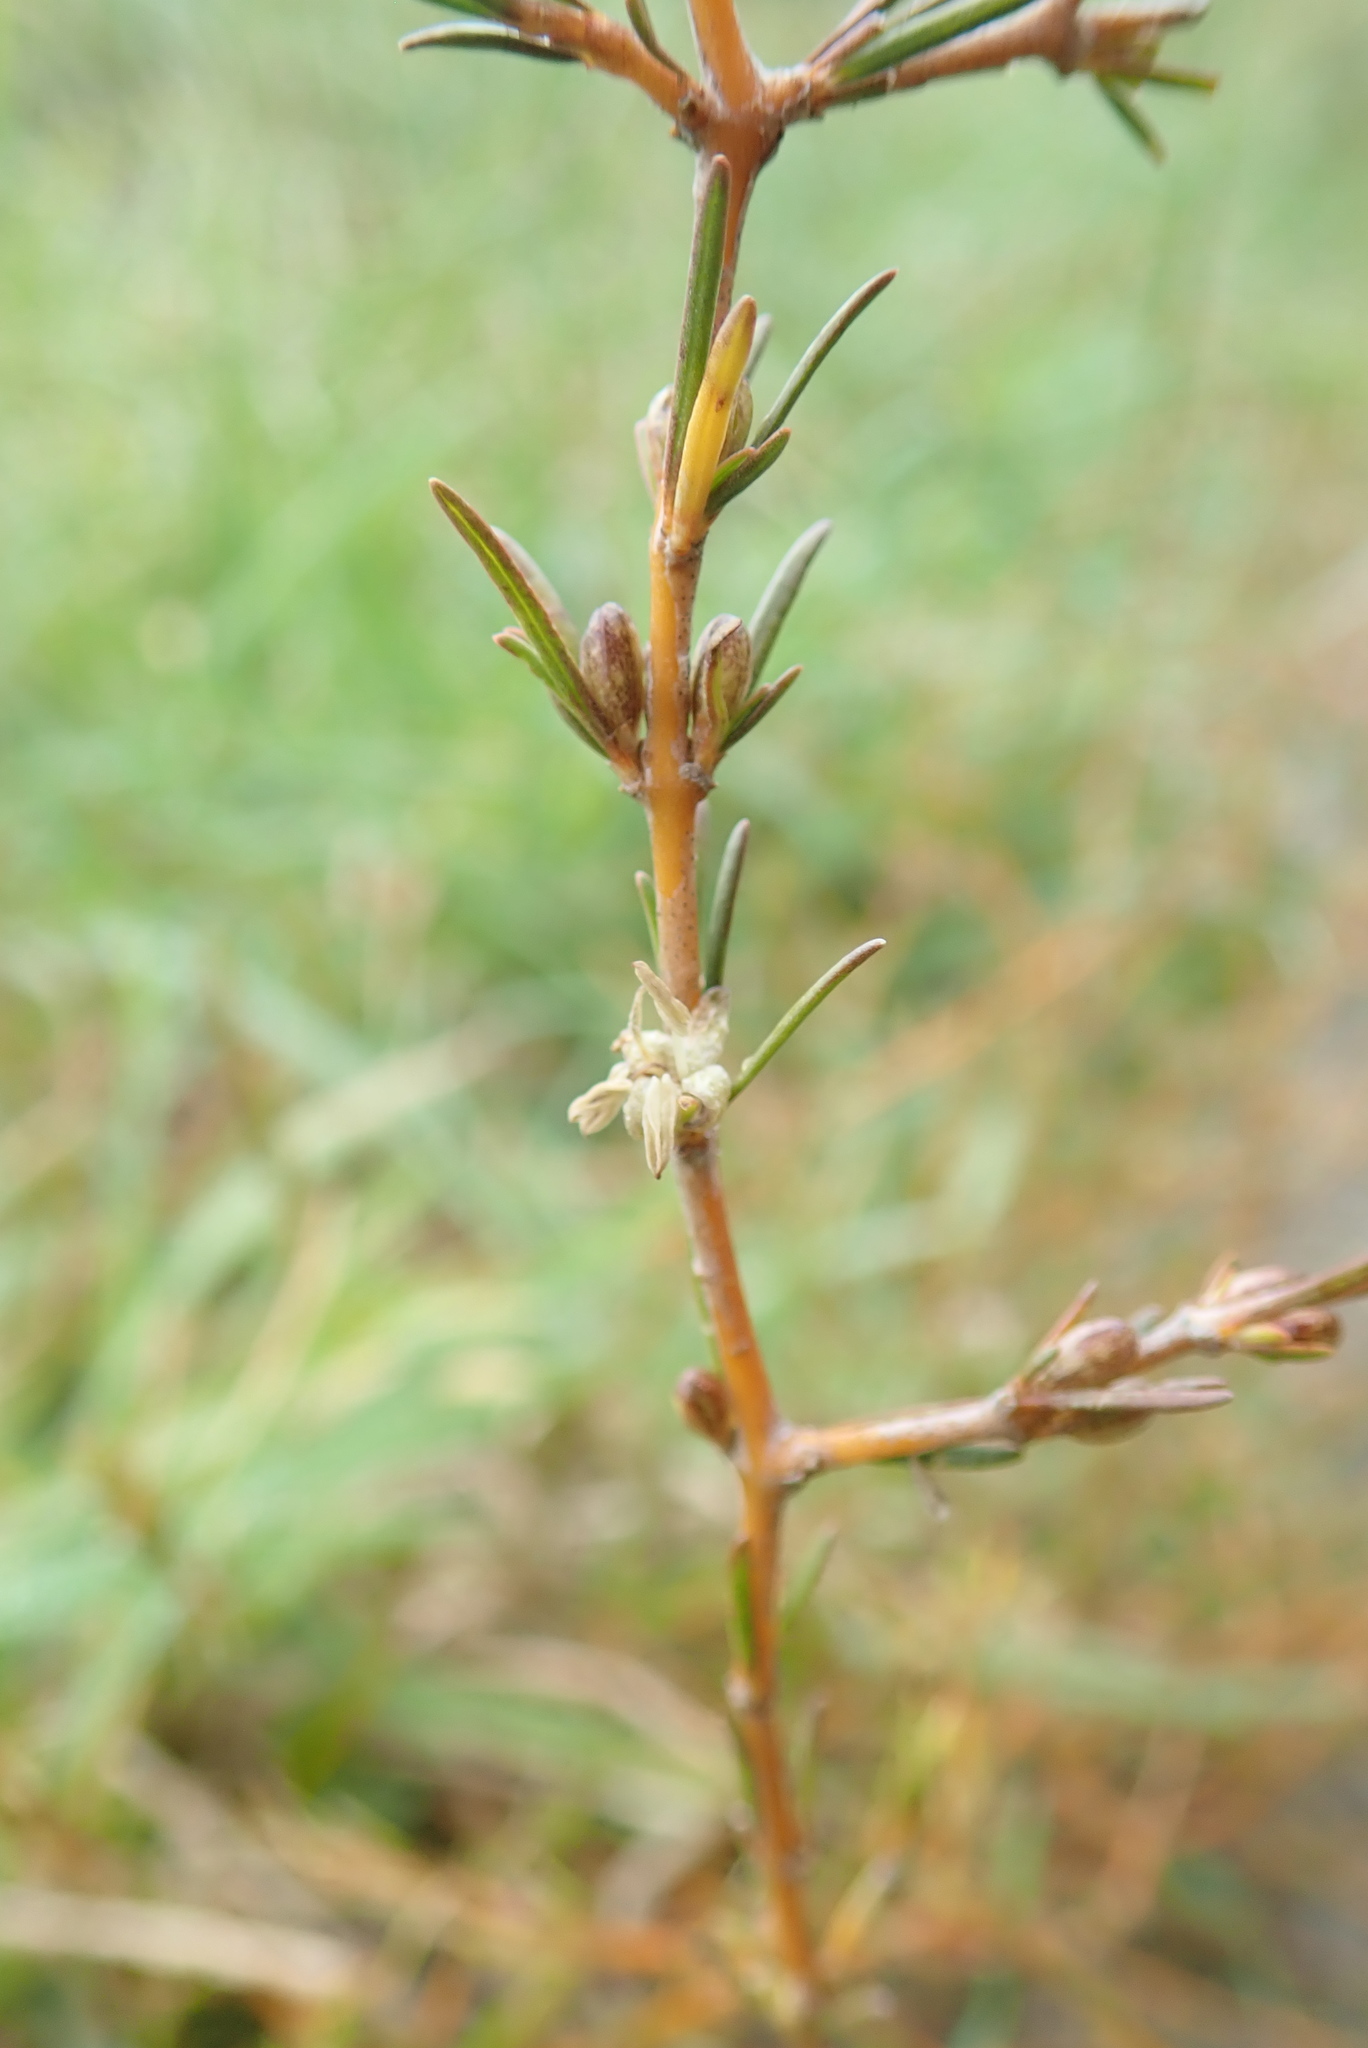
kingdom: Plantae
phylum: Tracheophyta
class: Magnoliopsida
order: Gentianales
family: Rubiaceae
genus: Coprosma
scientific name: Coprosma acerosa
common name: Sand coprosma
